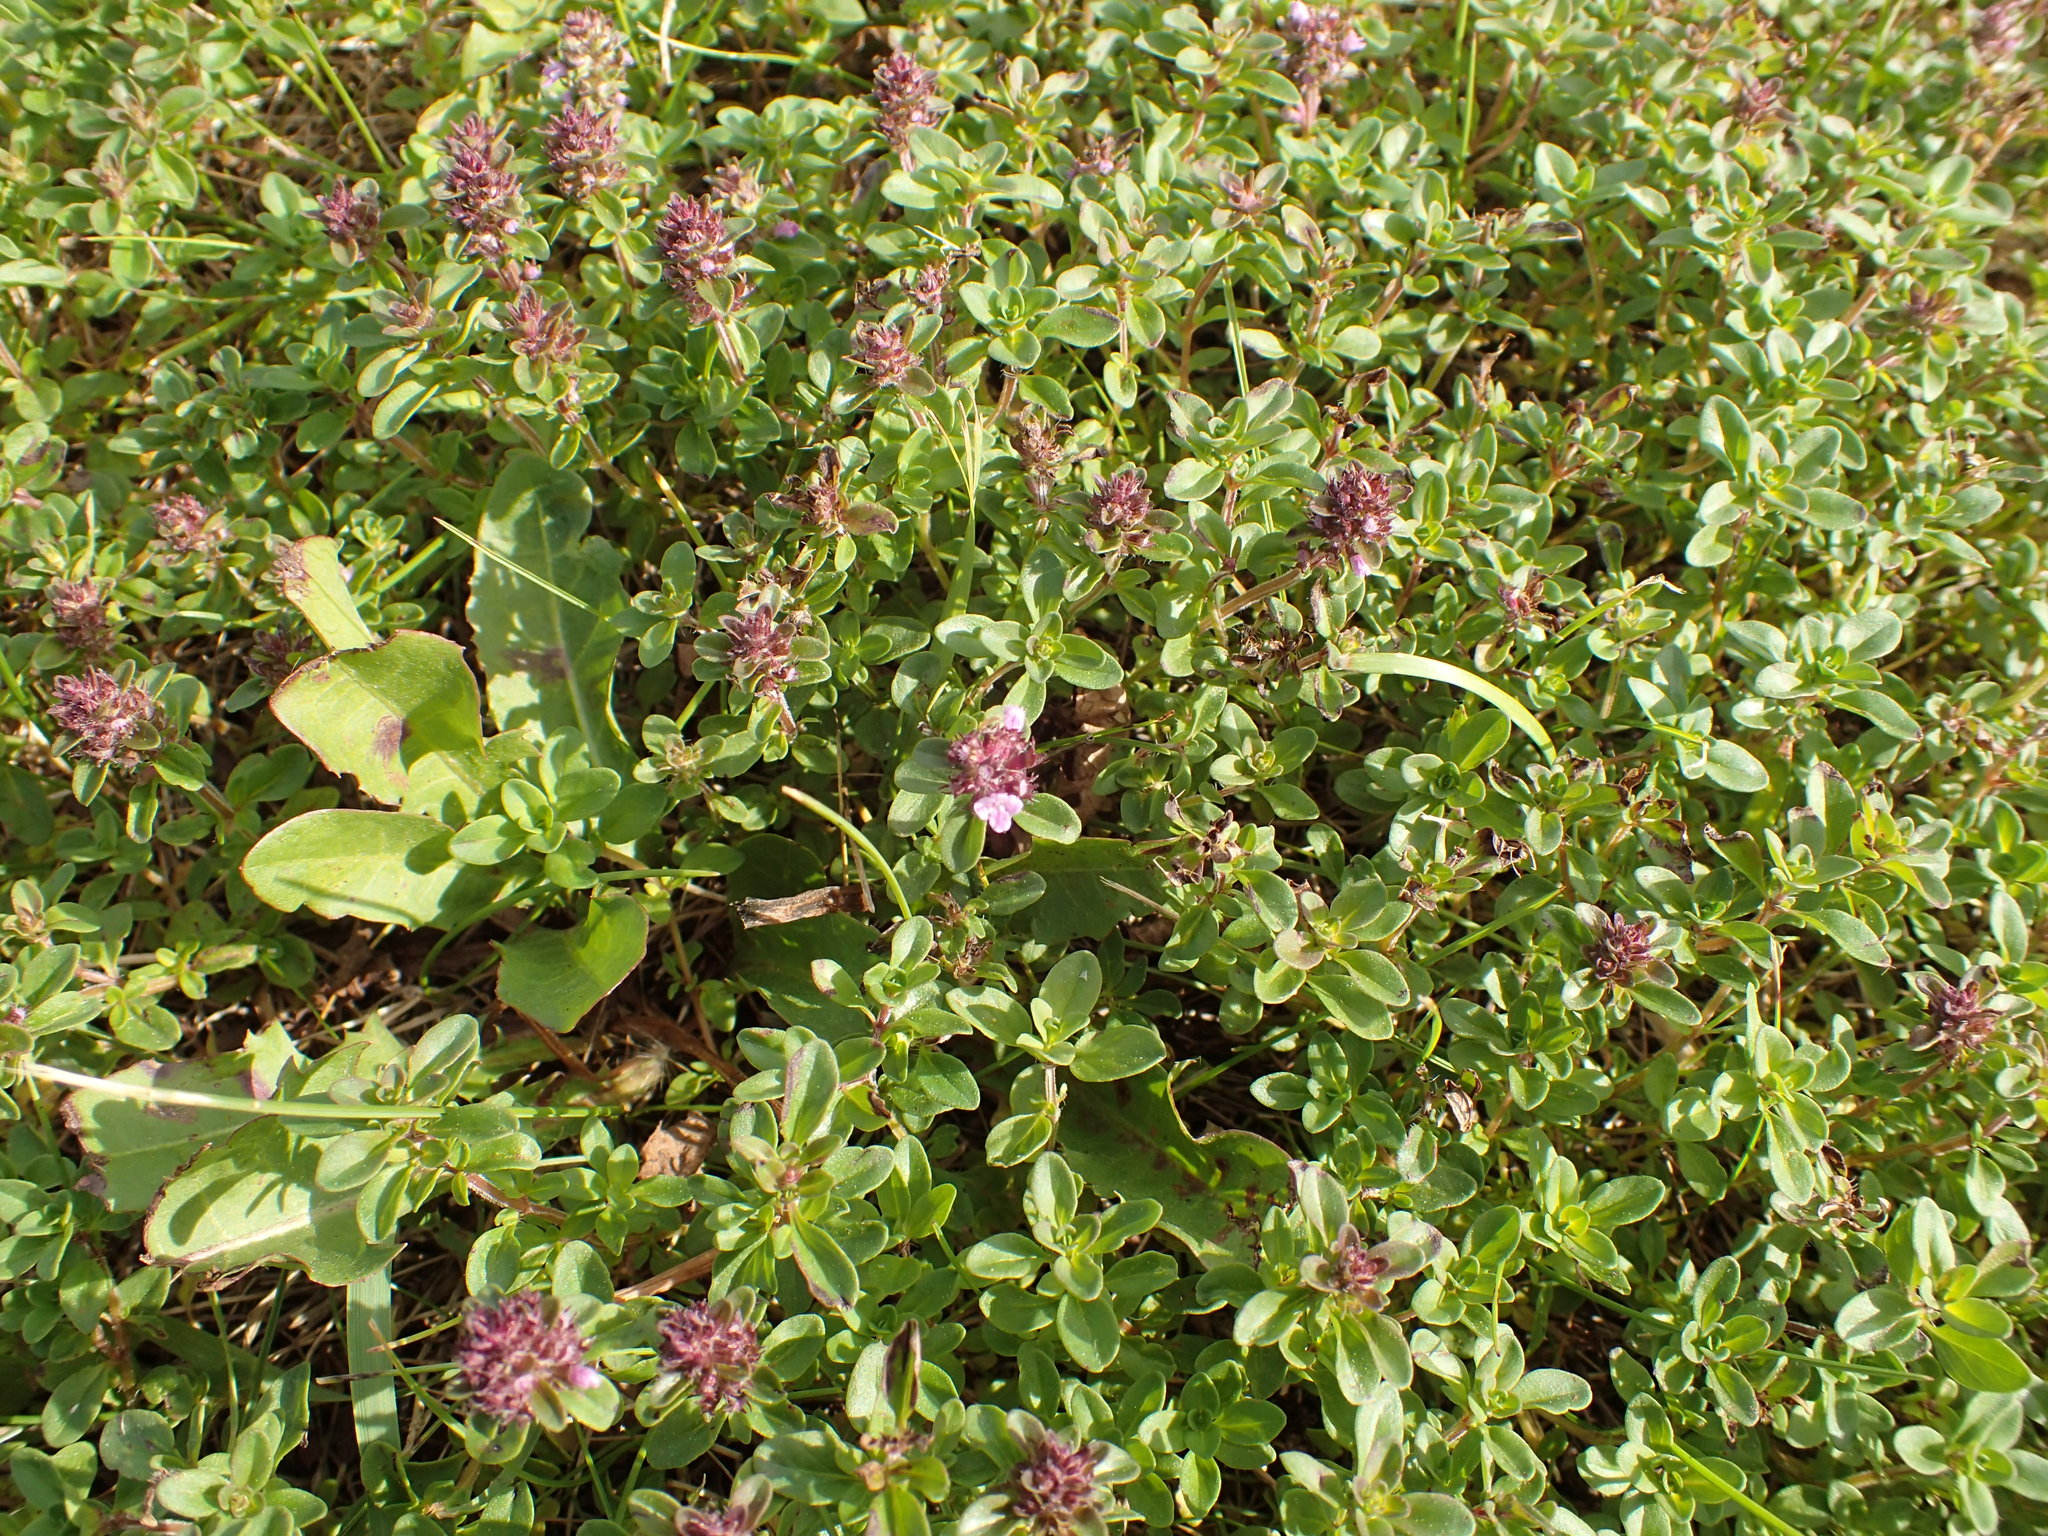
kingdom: Plantae
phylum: Tracheophyta
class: Magnoliopsida
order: Lamiales
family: Lamiaceae
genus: Thymus
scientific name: Thymus pulegioides
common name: Large thyme
